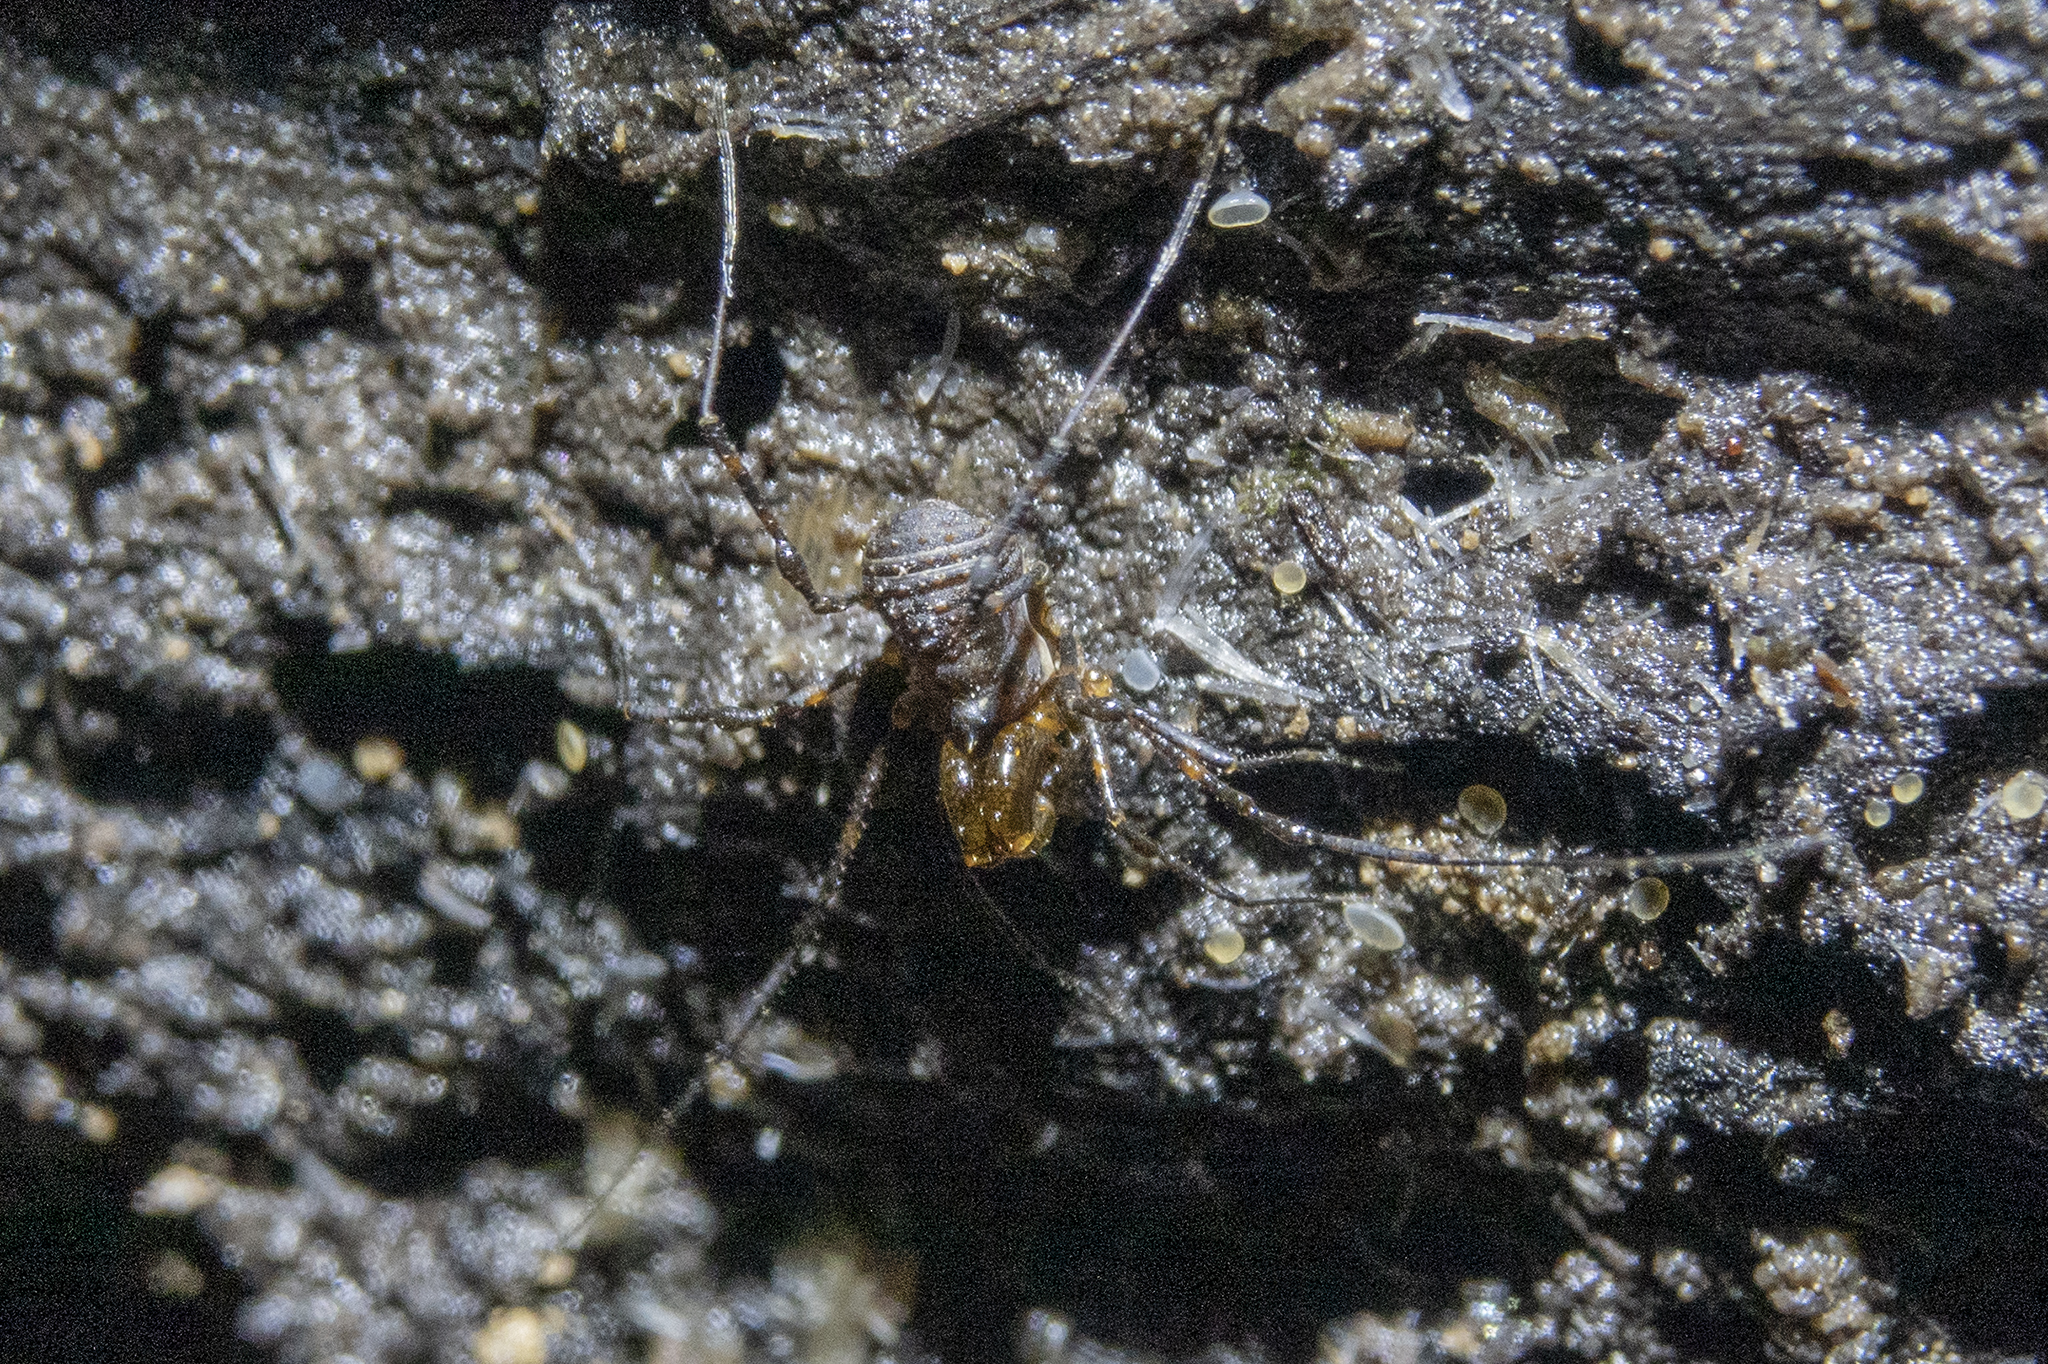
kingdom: Animalia
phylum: Arthropoda
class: Arachnida
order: Opiliones
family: Triaenonychidae
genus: Hendea
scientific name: Hendea myersi
